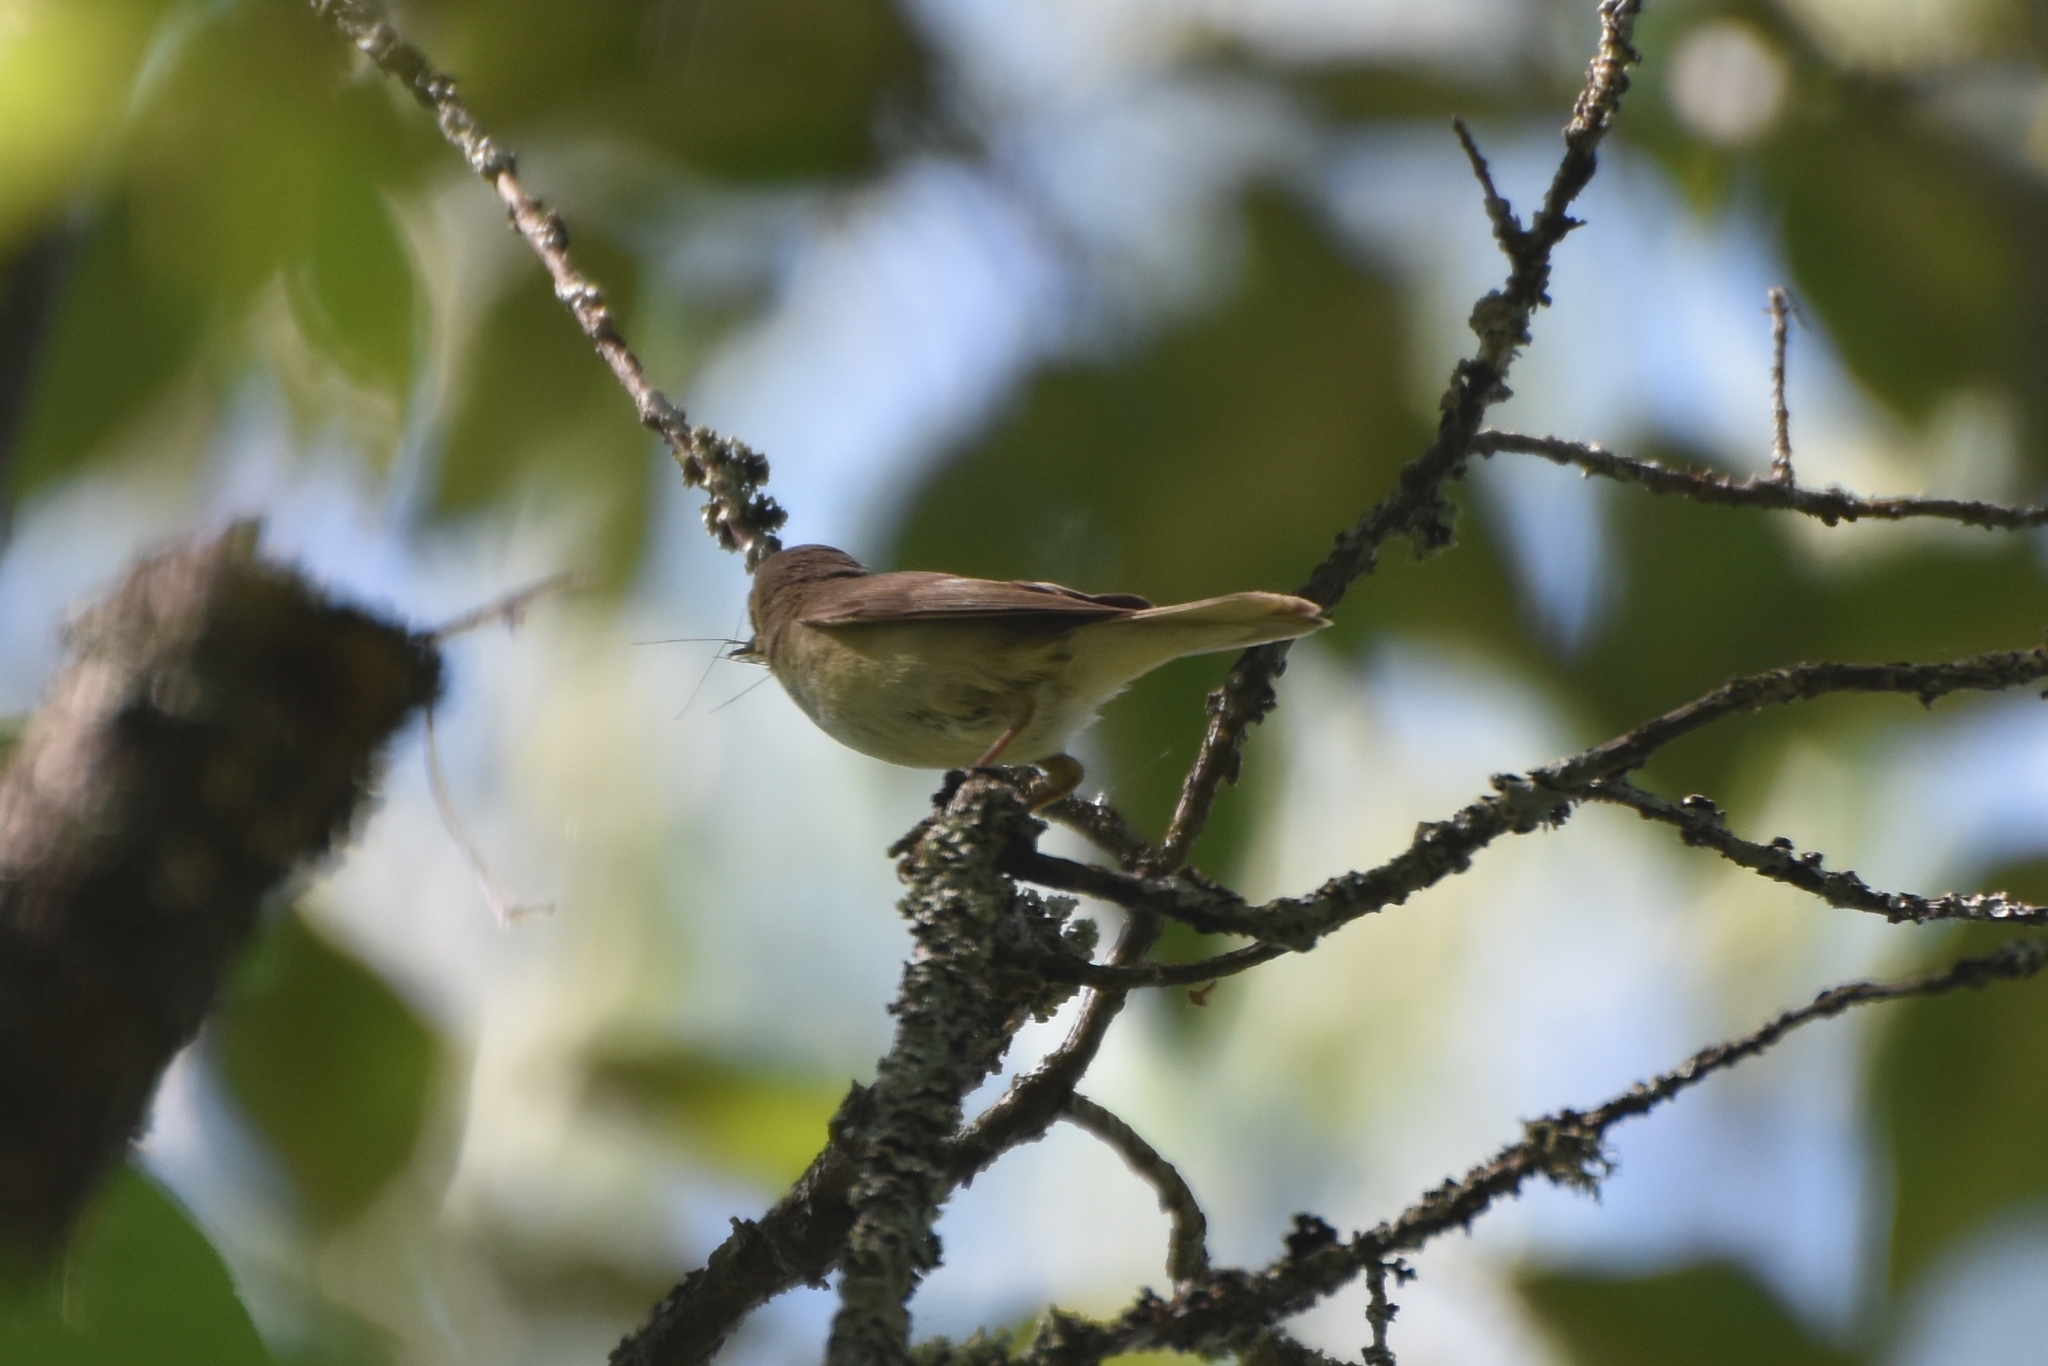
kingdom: Animalia
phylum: Chordata
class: Aves
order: Passeriformes
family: Acrocephalidae
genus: Acrocephalus
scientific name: Acrocephalus dumetorum
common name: Blyth's reed warbler
